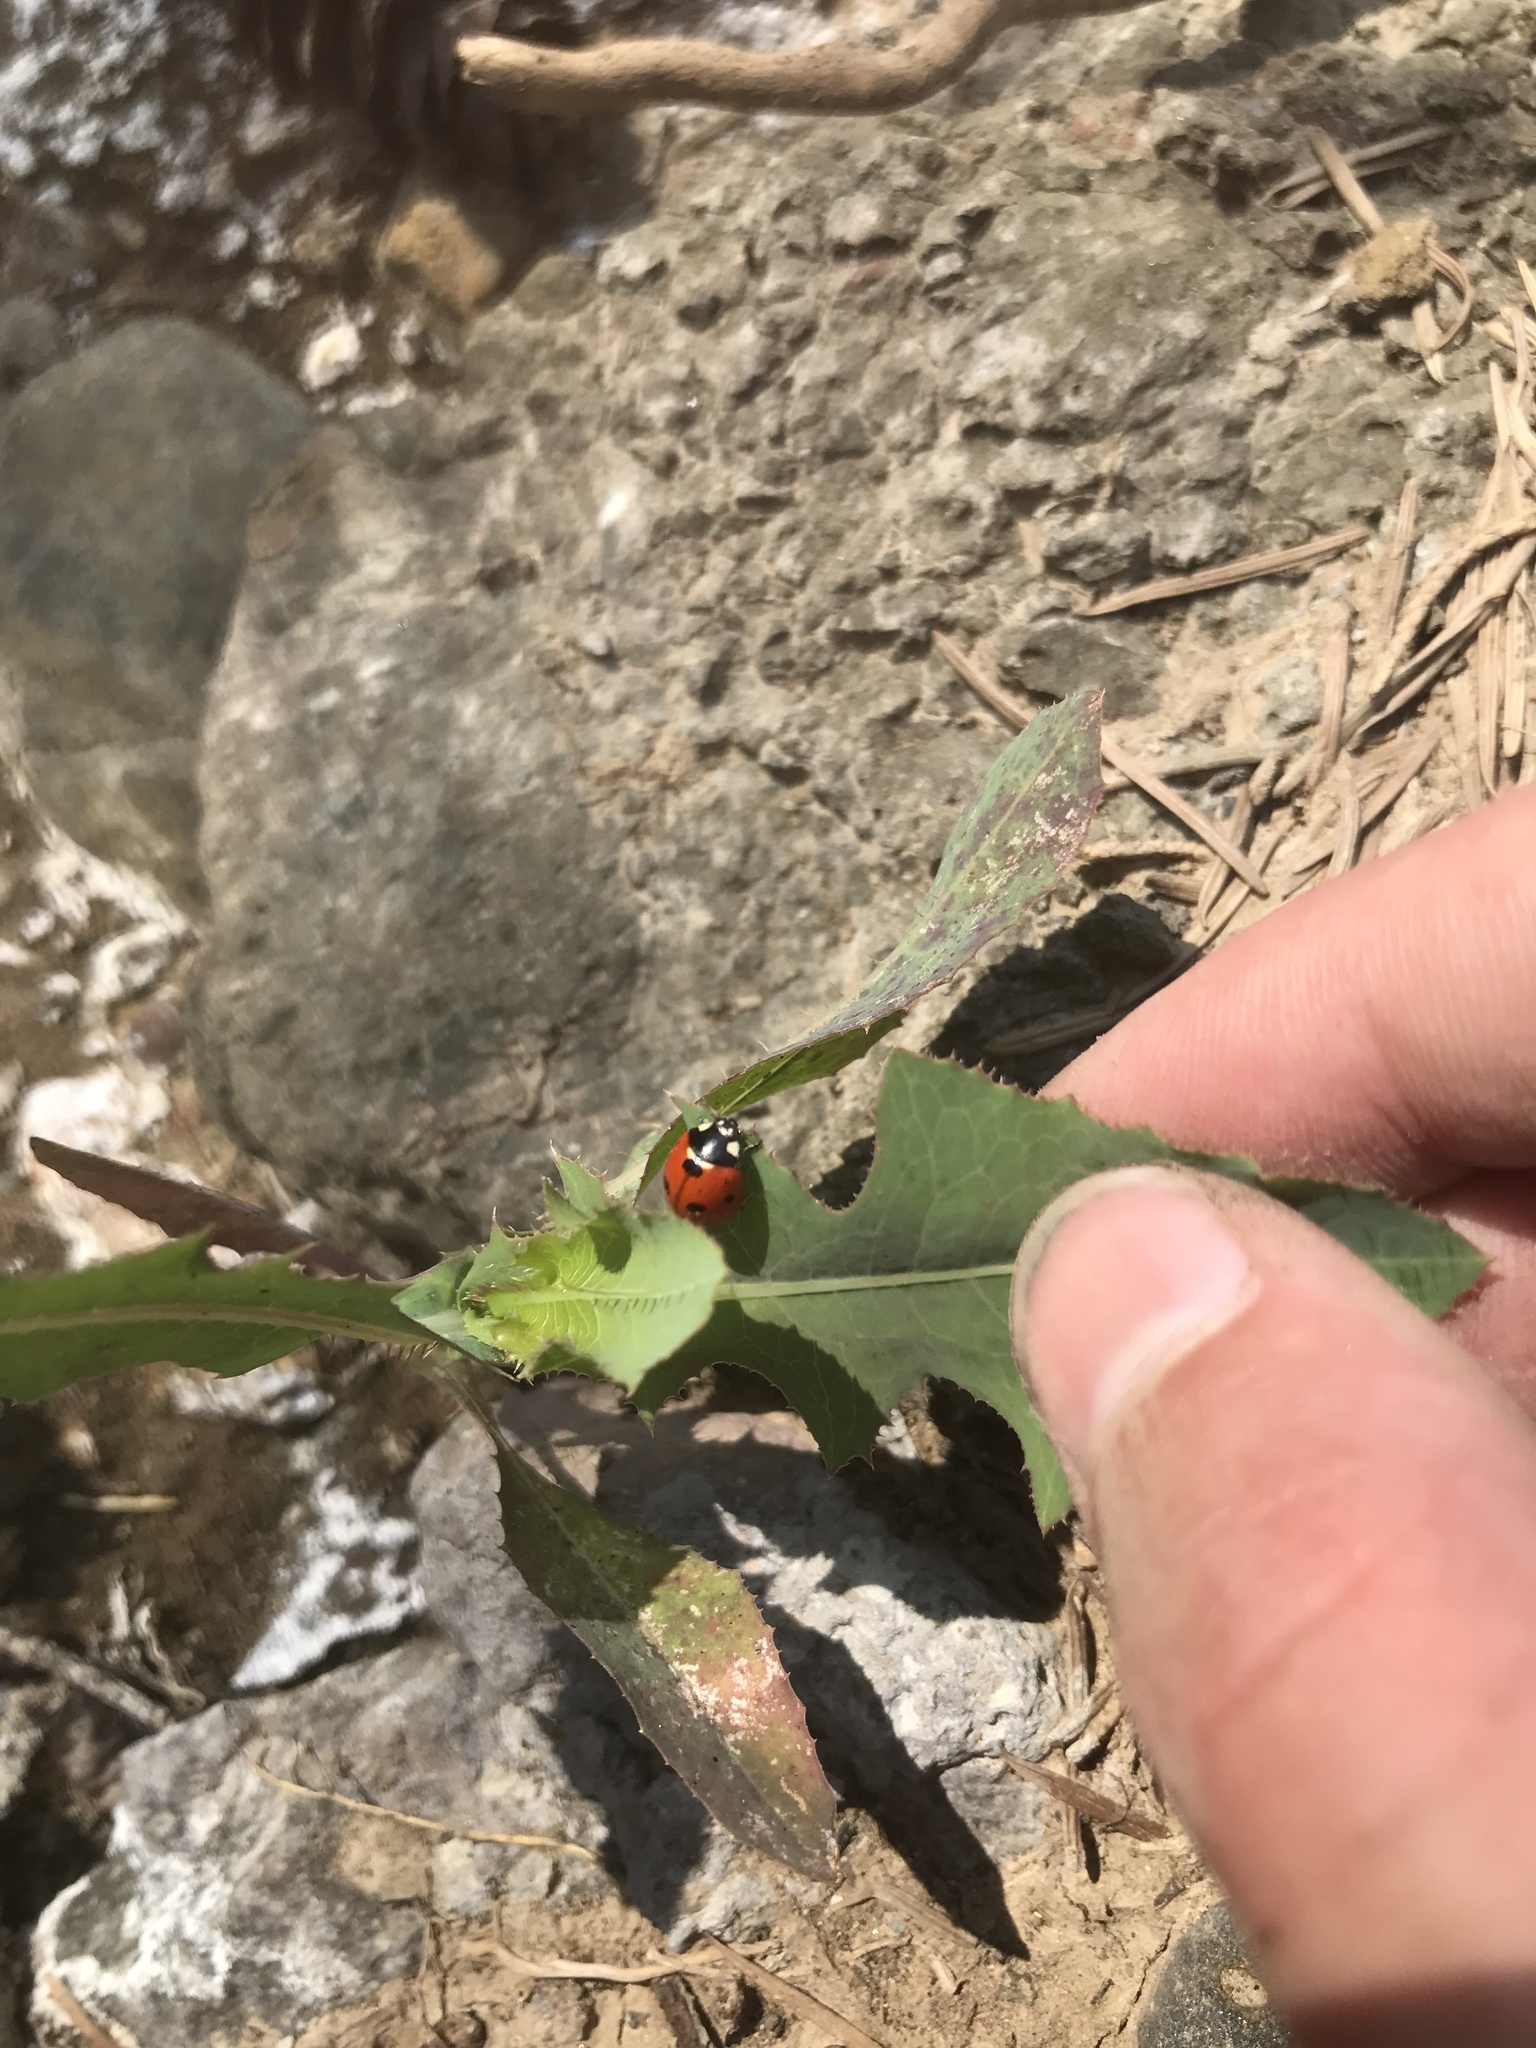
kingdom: Animalia
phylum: Arthropoda
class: Insecta
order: Coleoptera
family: Coccinellidae
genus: Coccinella
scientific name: Coccinella transversoguttata
